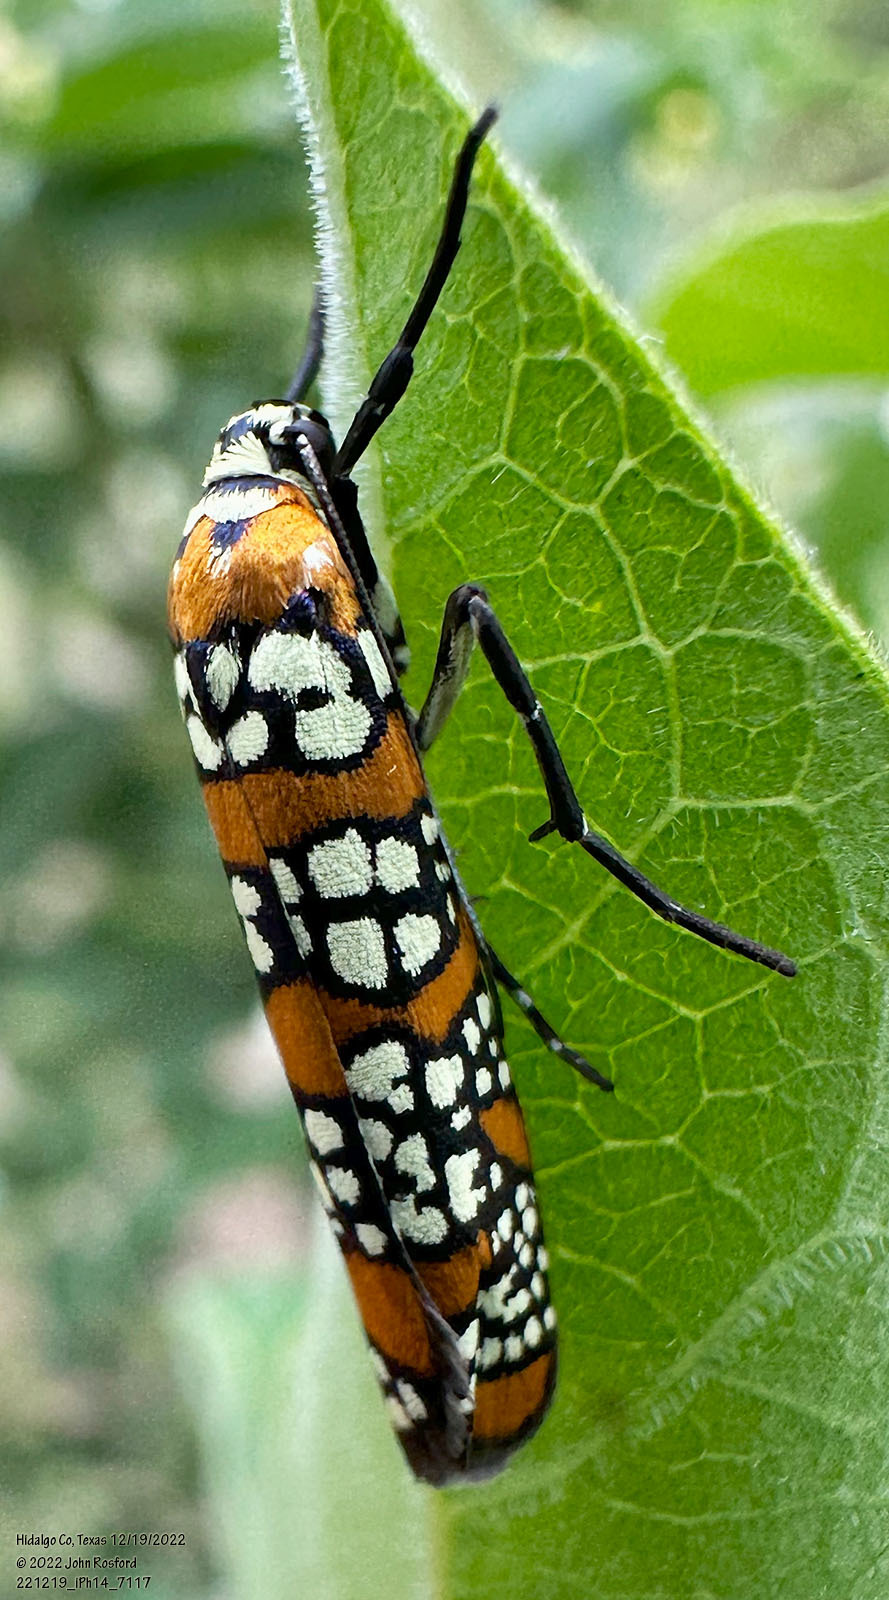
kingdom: Animalia
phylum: Arthropoda
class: Insecta
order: Lepidoptera
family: Attevidae
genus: Atteva
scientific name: Atteva punctella
